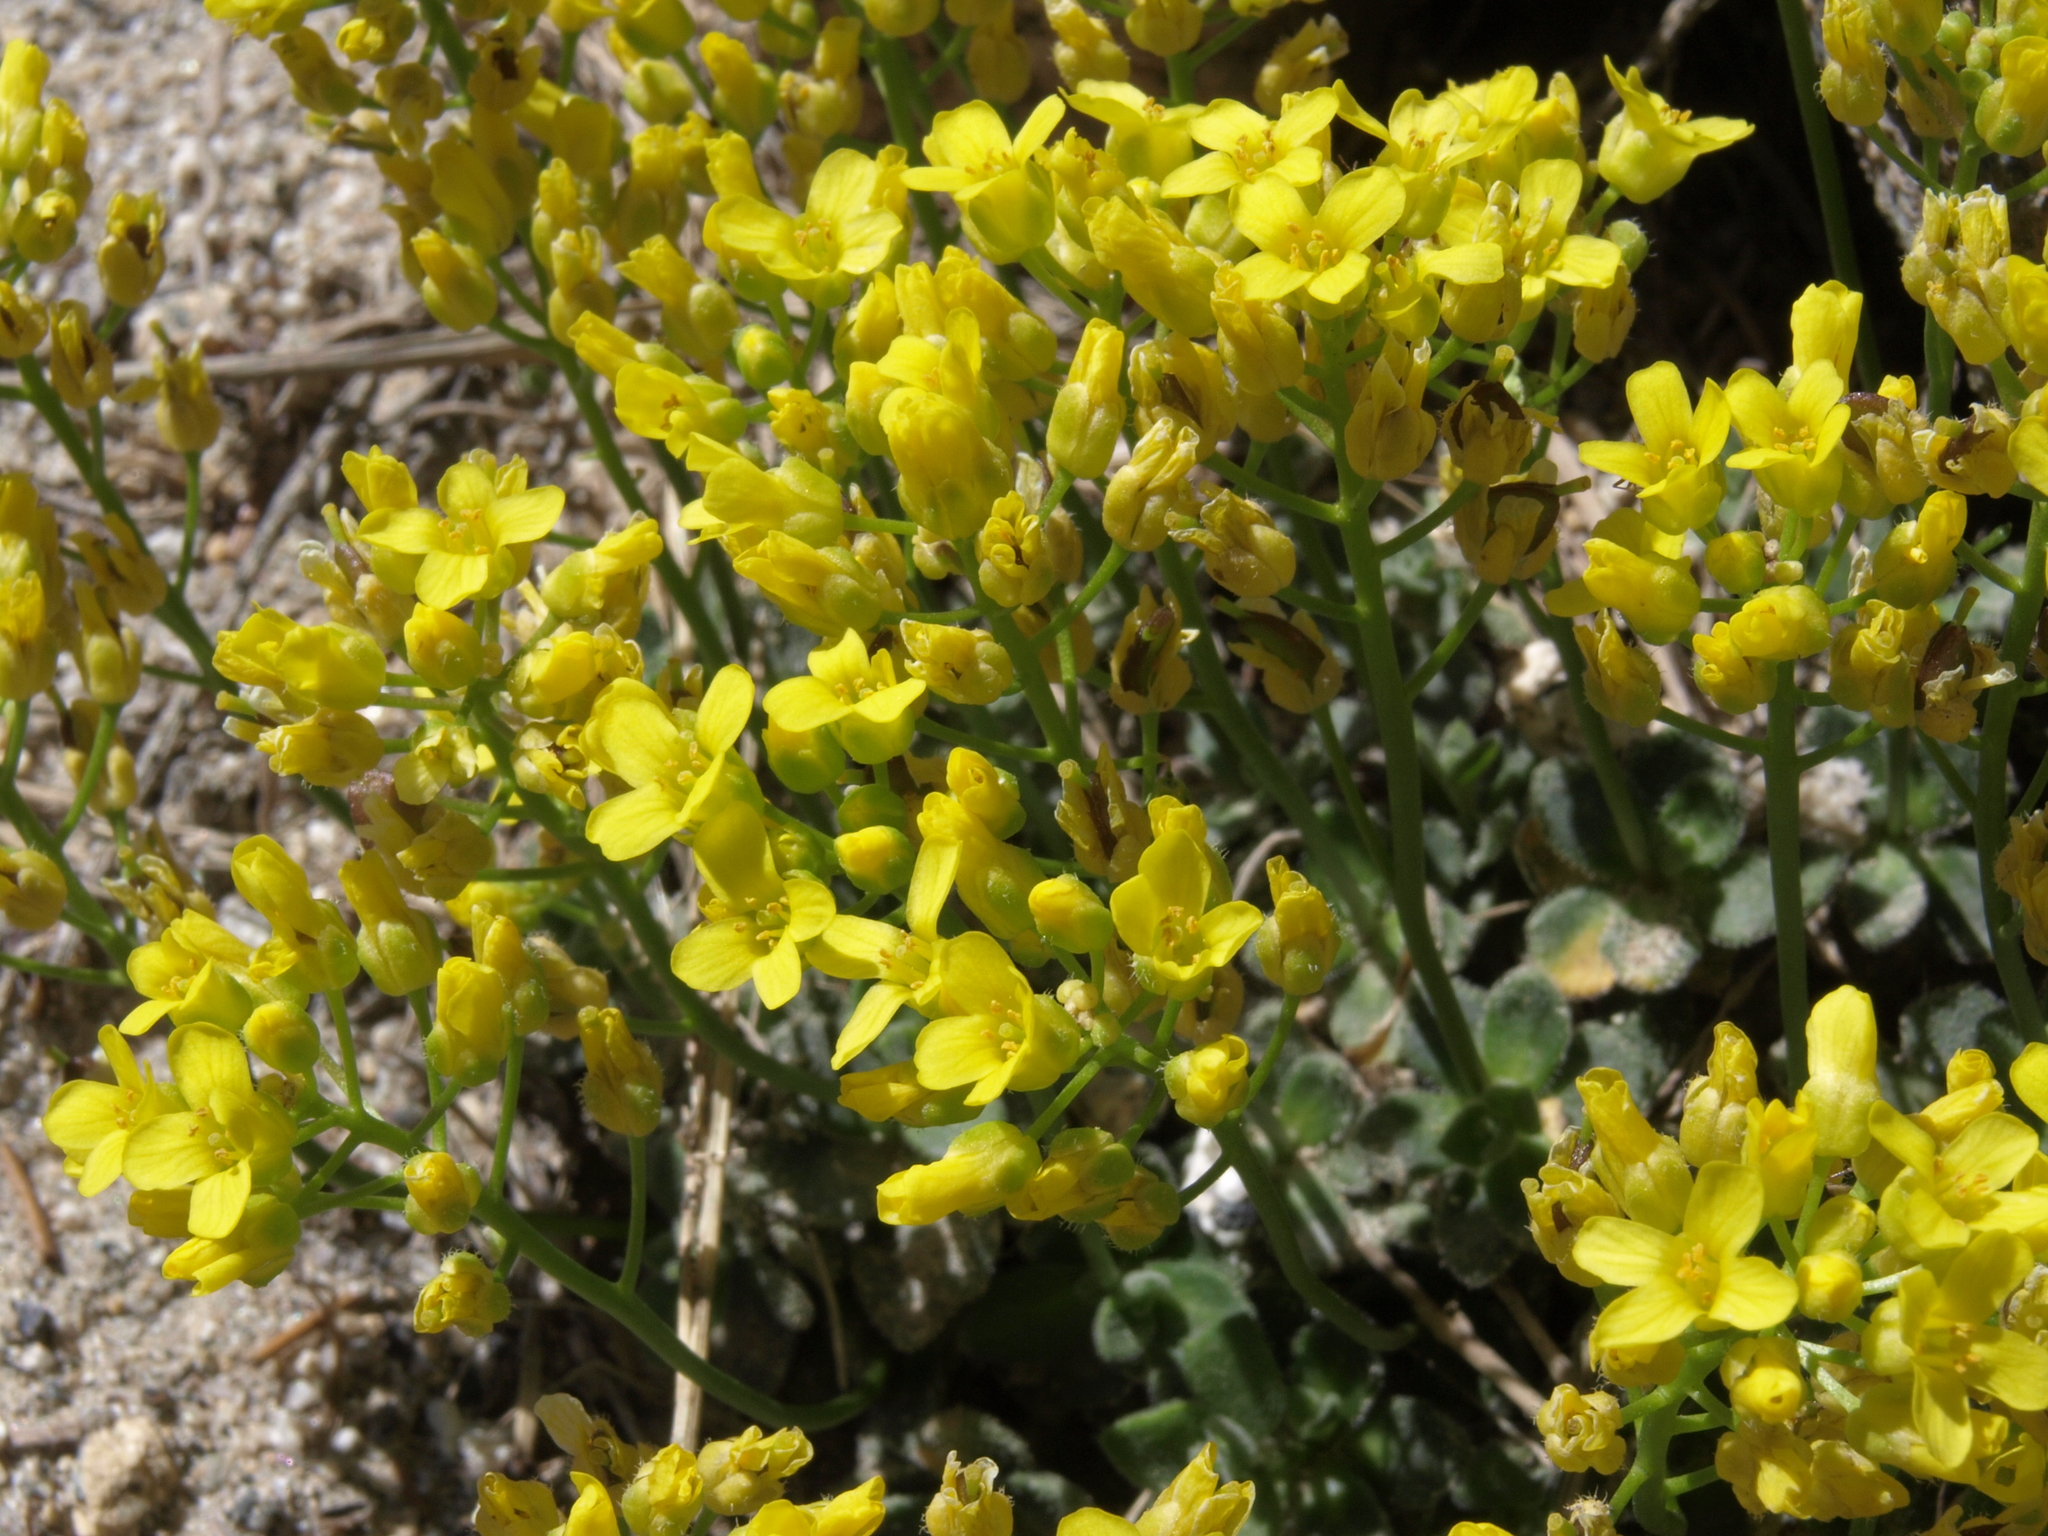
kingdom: Plantae
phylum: Tracheophyta
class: Magnoliopsida
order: Brassicales
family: Brassicaceae
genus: Draba
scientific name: Draba asterophora
